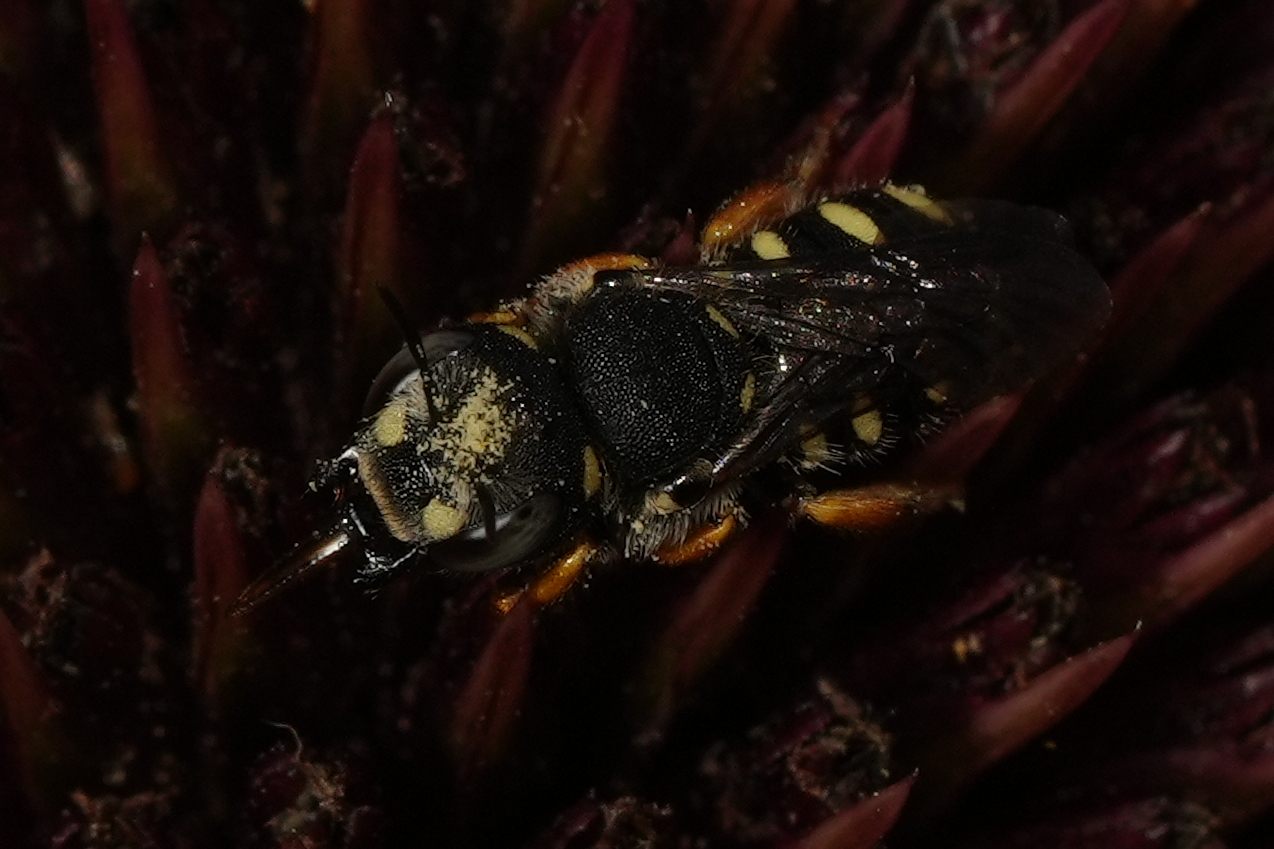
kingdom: Animalia
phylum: Arthropoda
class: Insecta
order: Hymenoptera
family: Megachilidae
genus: Pseudoanthidium
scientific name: Pseudoanthidium nanum
